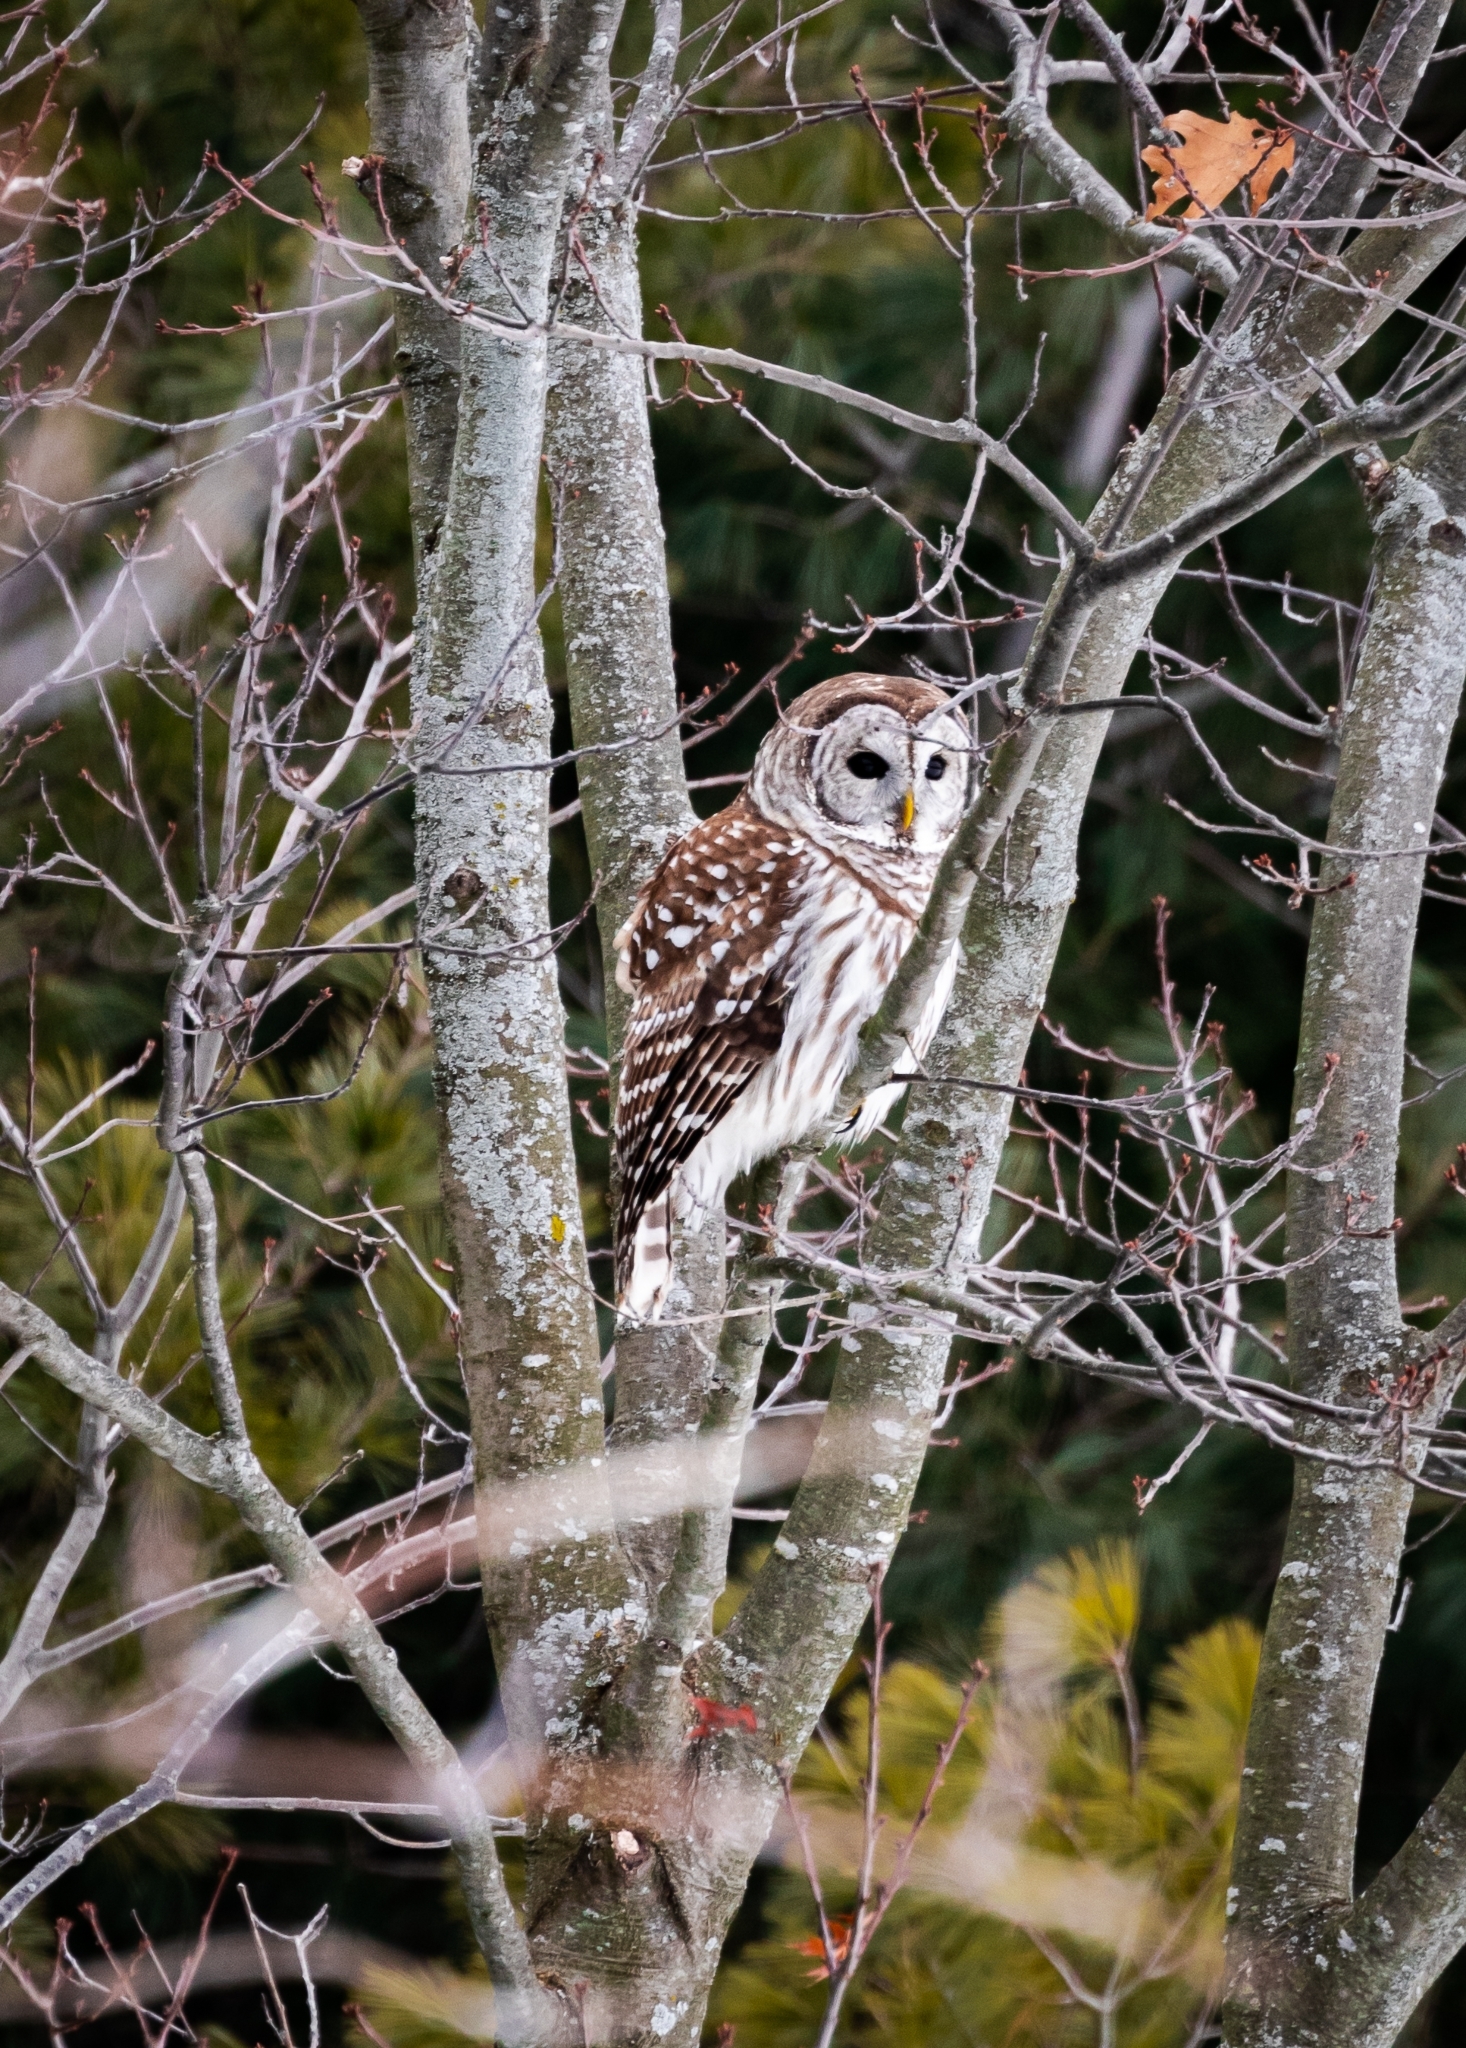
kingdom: Animalia
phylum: Chordata
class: Aves
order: Strigiformes
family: Strigidae
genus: Strix
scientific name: Strix varia
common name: Barred owl
